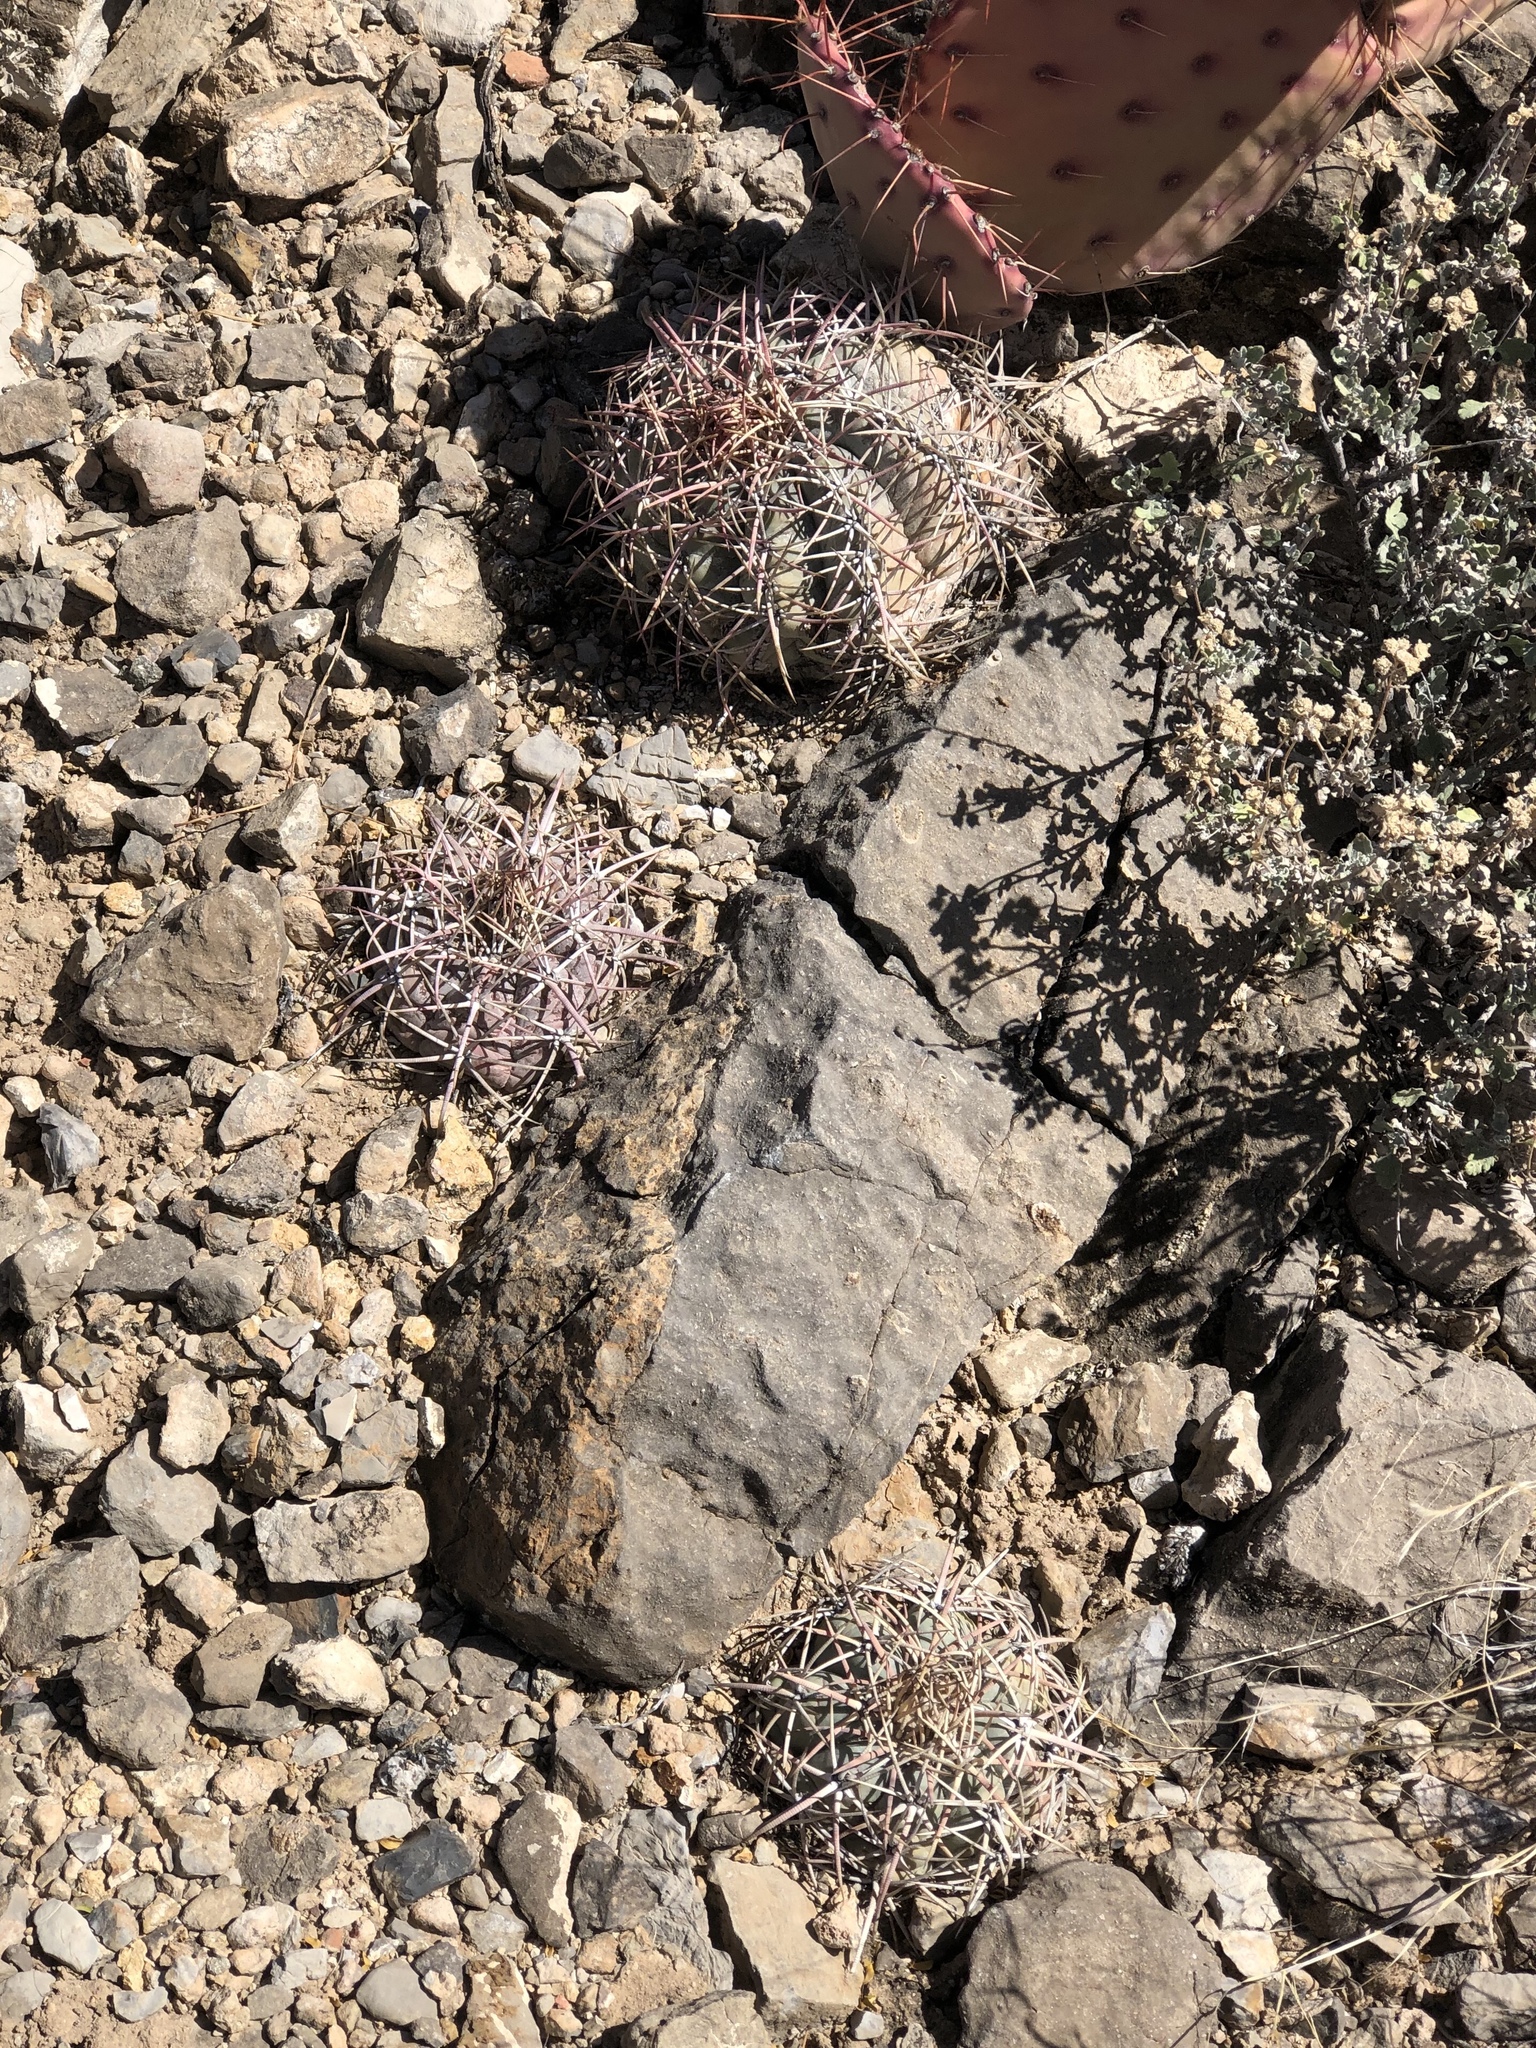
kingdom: Plantae
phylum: Tracheophyta
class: Magnoliopsida
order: Caryophyllales
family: Cactaceae
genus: Echinocactus
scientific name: Echinocactus horizonthalonius
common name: Devilshead
